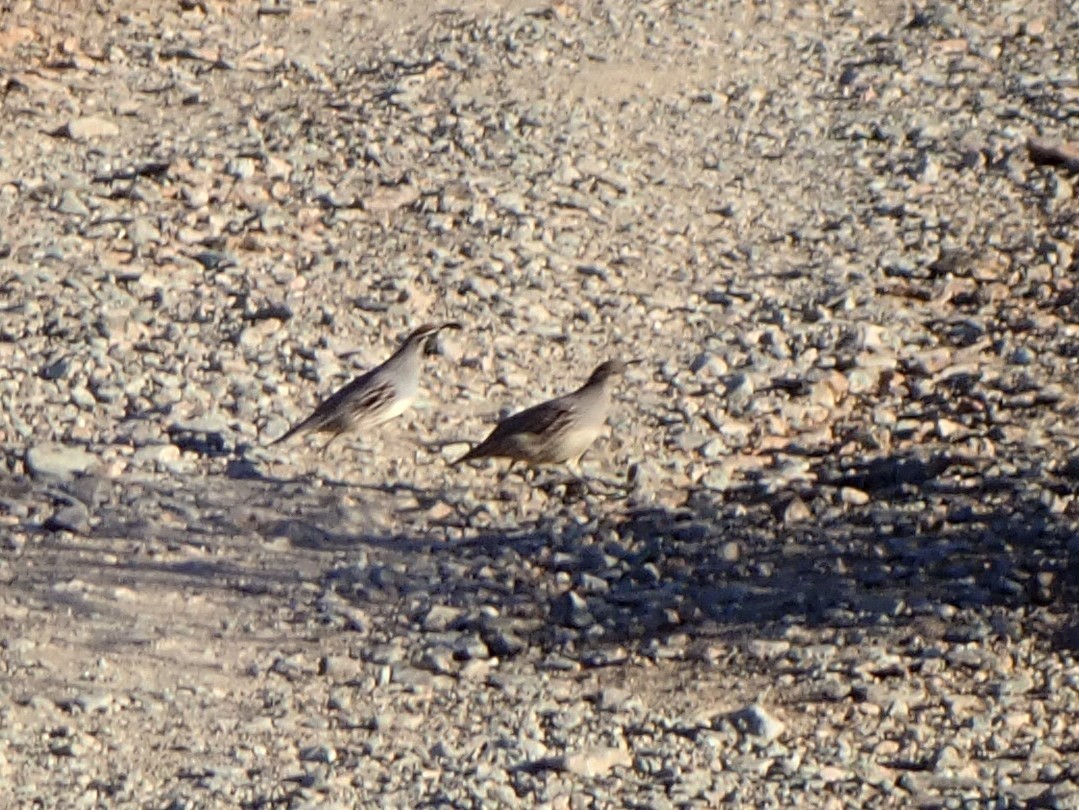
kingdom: Animalia
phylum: Chordata
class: Aves
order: Galliformes
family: Odontophoridae
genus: Callipepla
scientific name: Callipepla gambelii
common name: Gambel's quail
